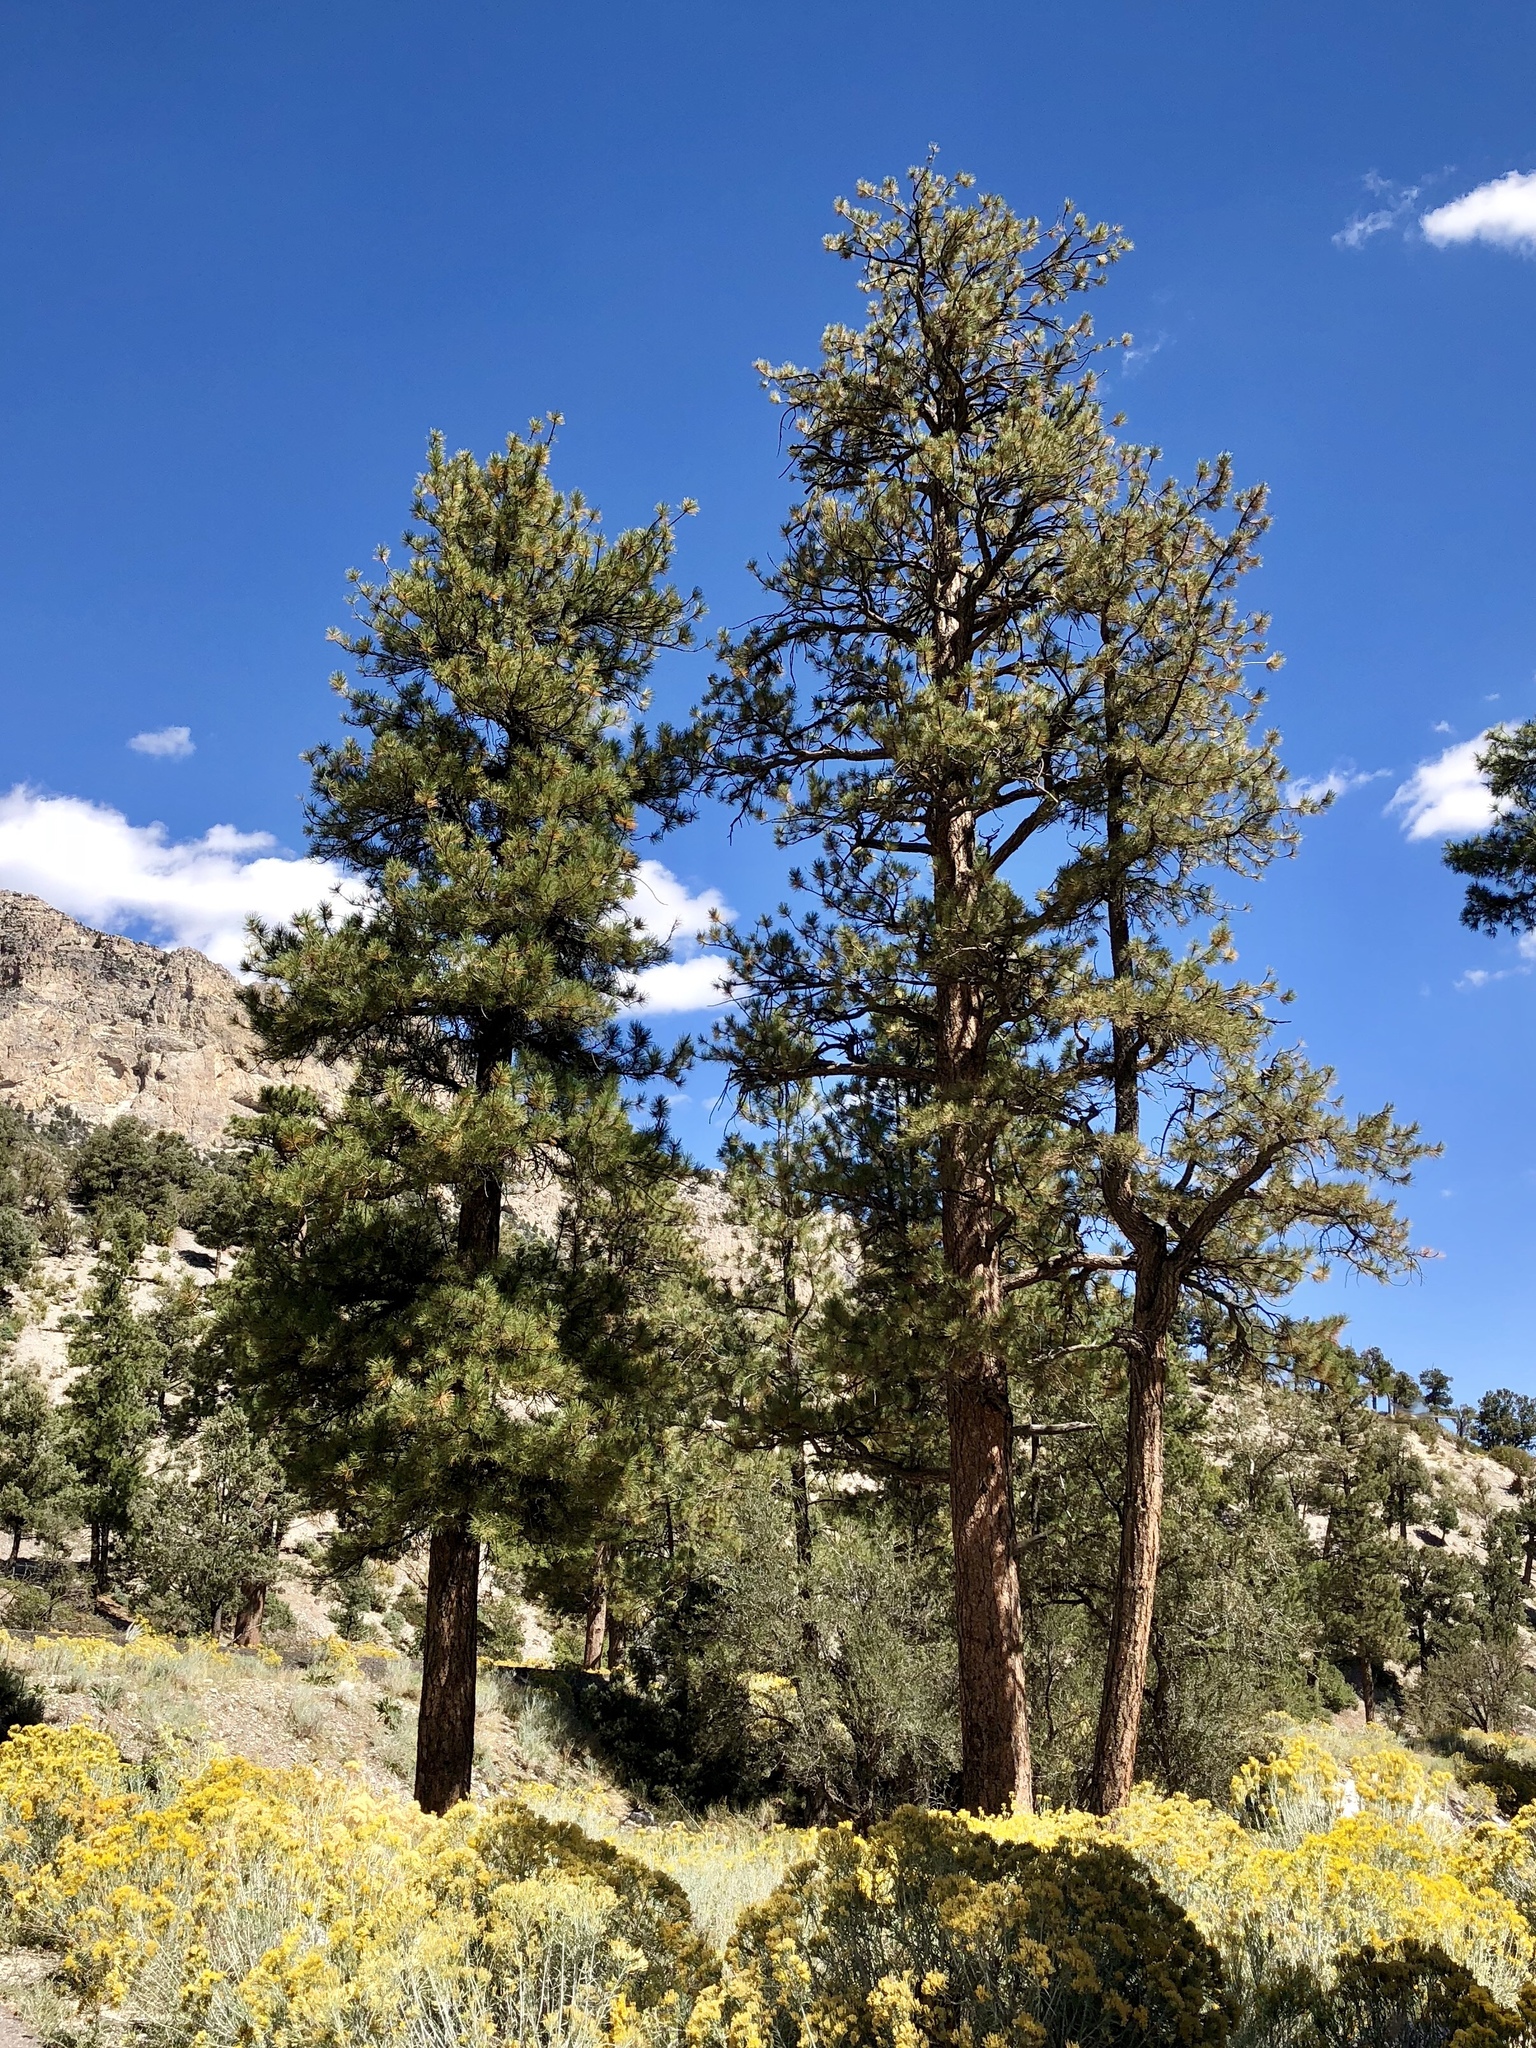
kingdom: Plantae
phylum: Tracheophyta
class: Pinopsida
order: Pinales
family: Pinaceae
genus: Pinus
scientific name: Pinus ponderosa
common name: Western yellow-pine
